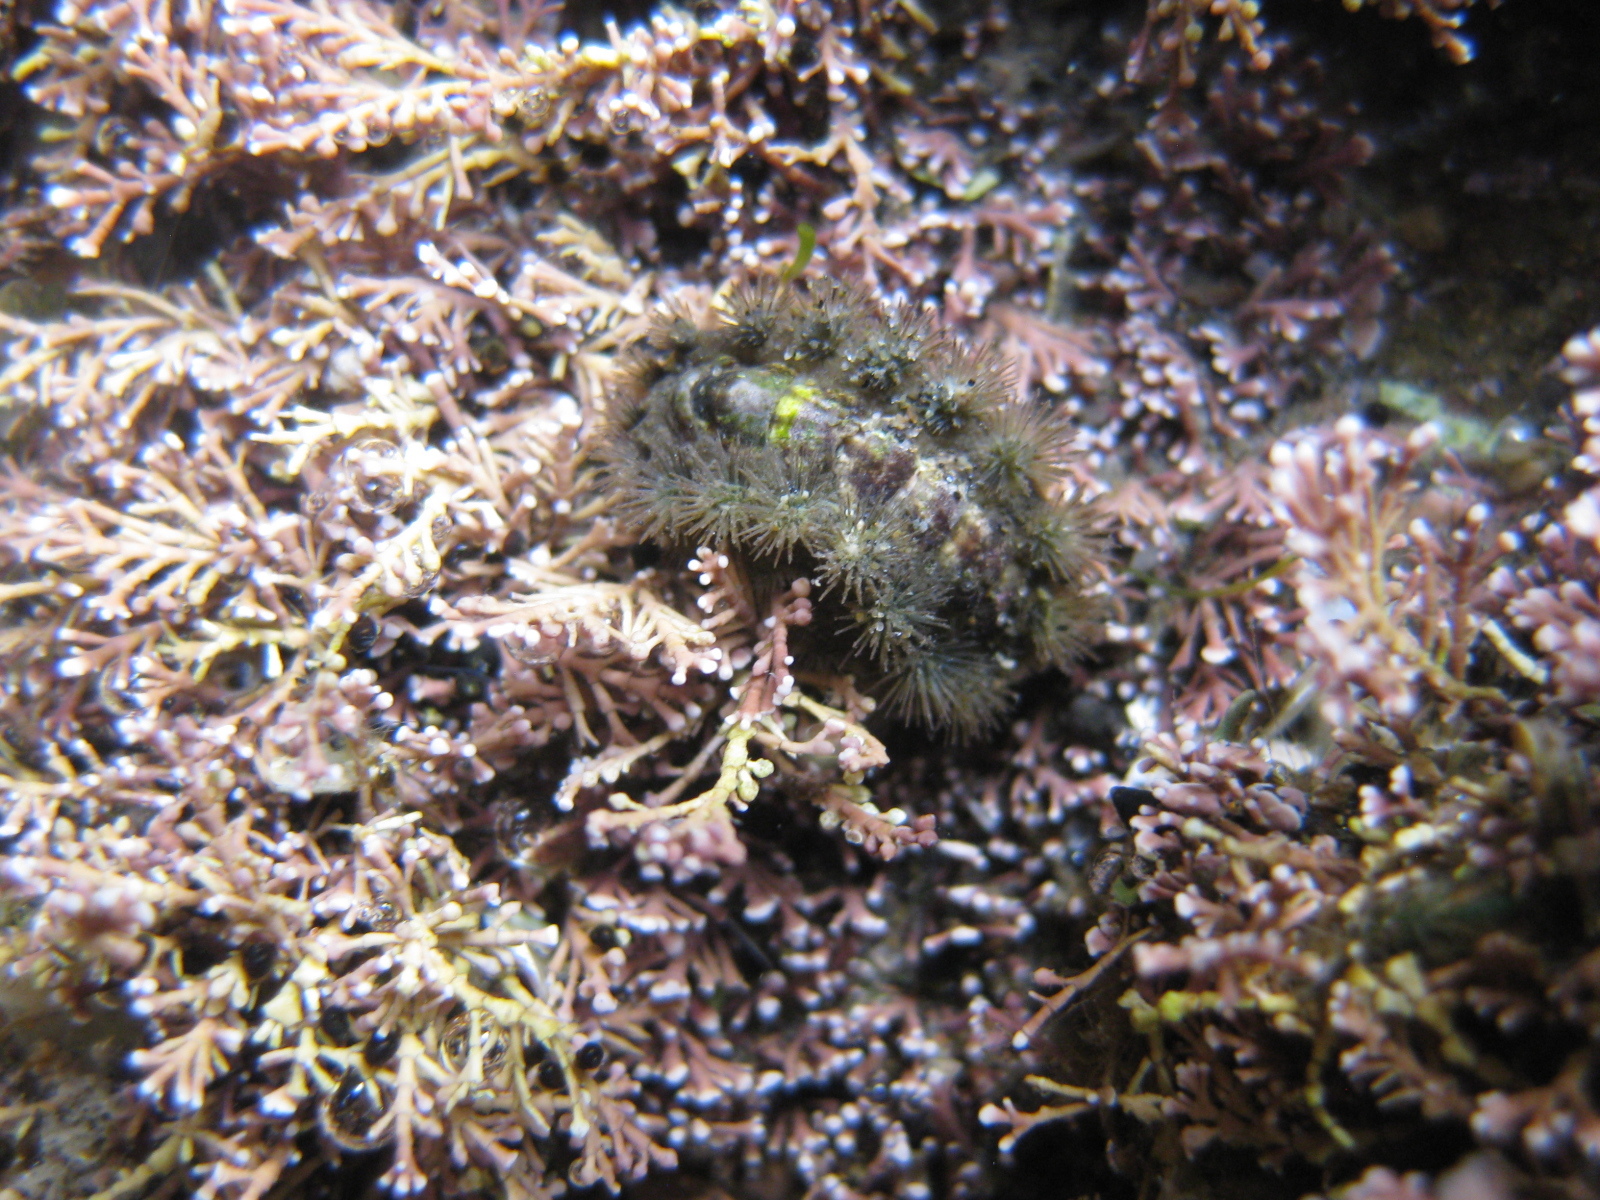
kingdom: Animalia
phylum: Mollusca
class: Polyplacophora
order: Chitonida
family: Acanthochitonidae
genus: Acanthochitona
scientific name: Acanthochitona zelandica
